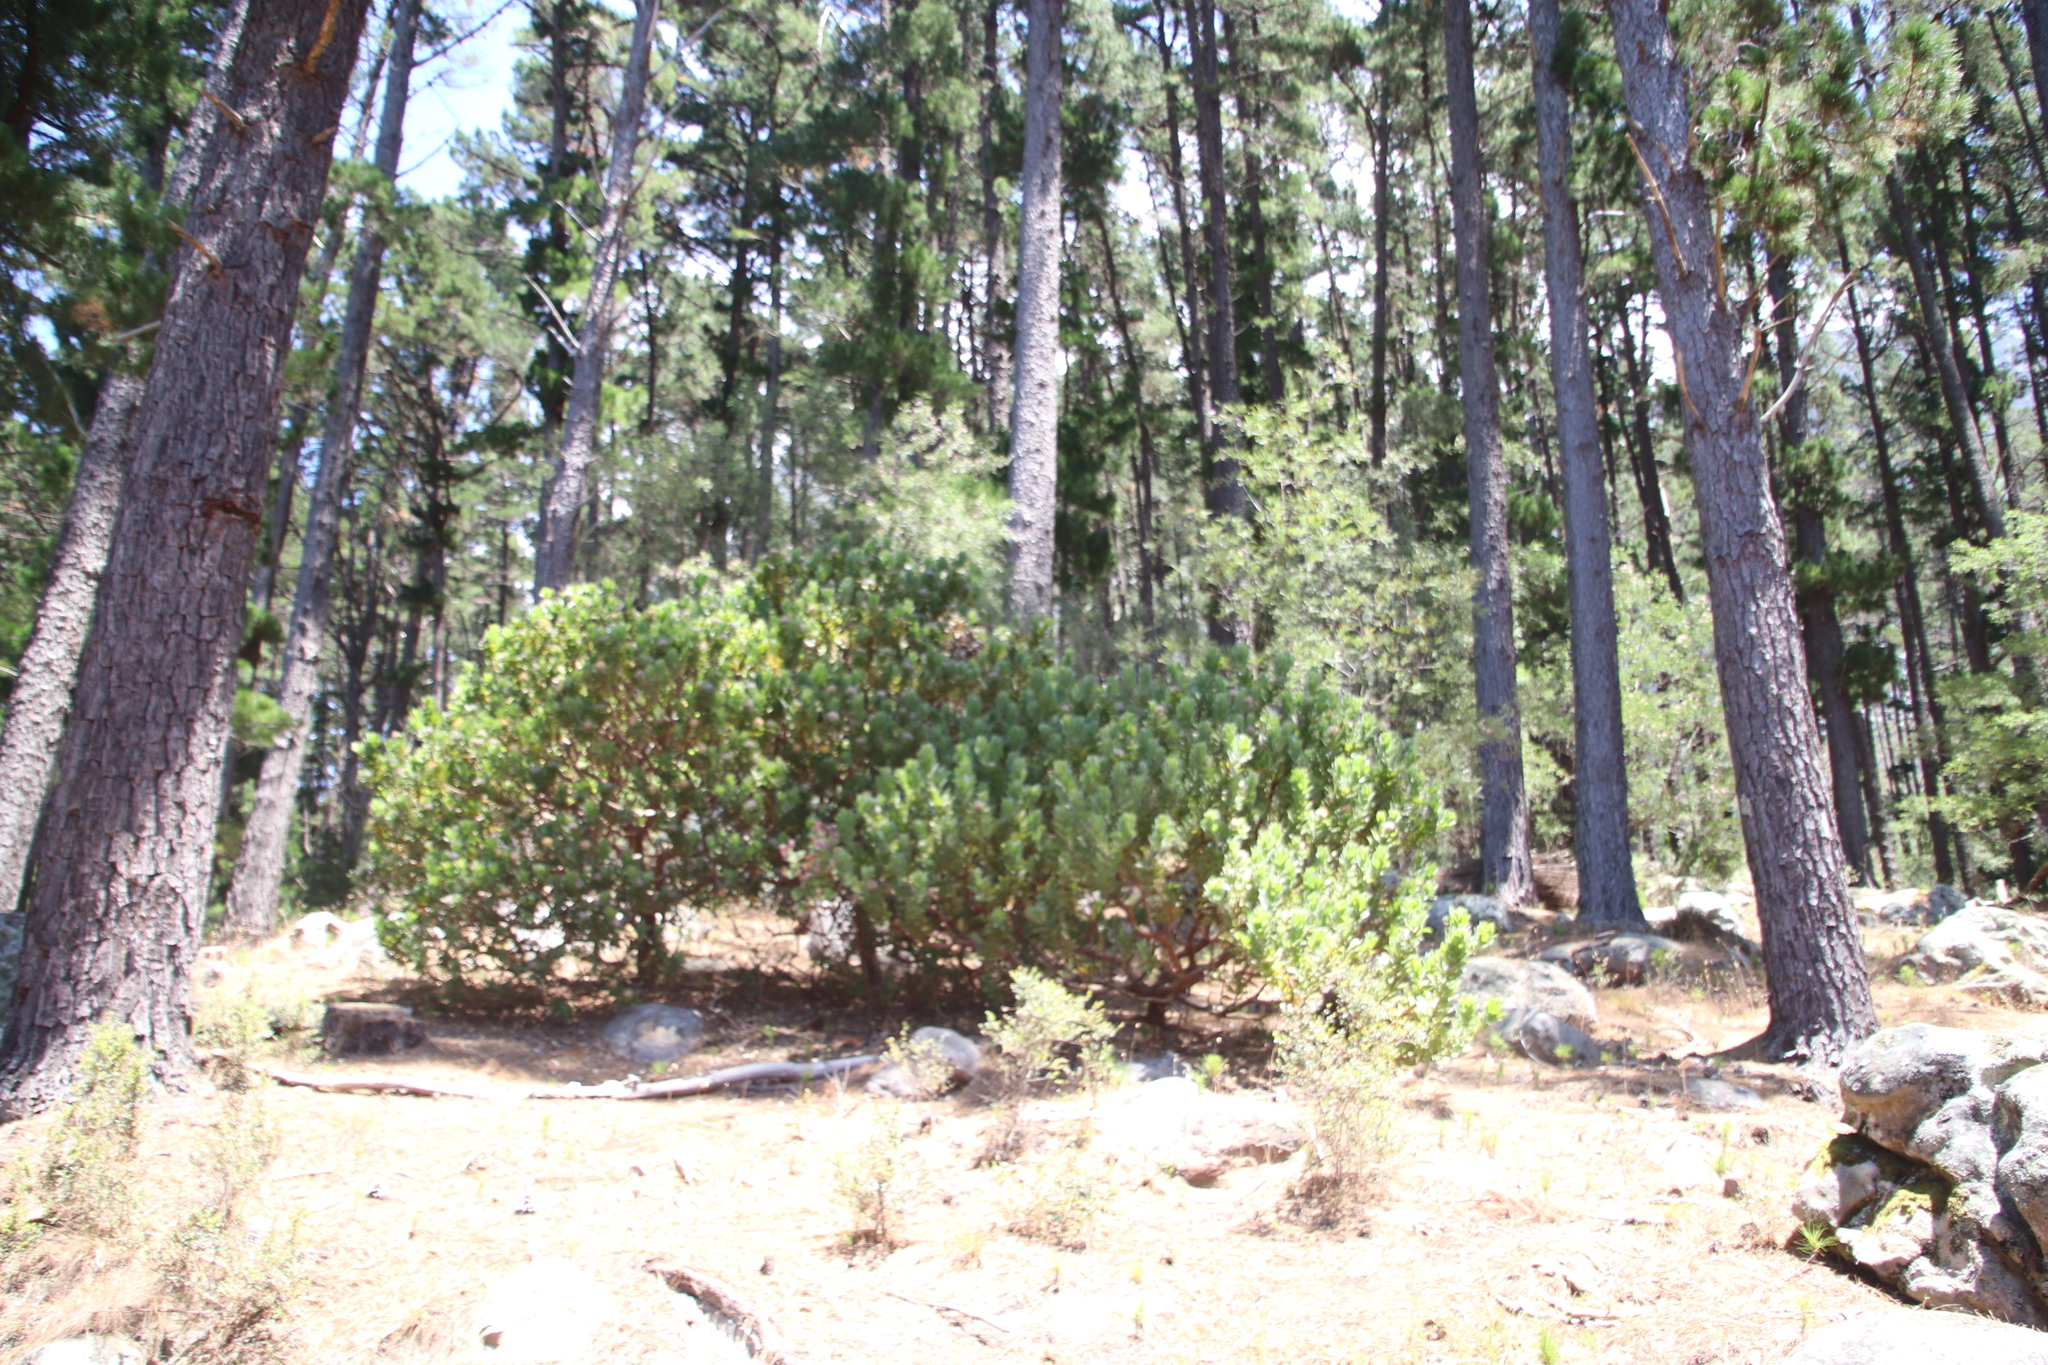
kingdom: Plantae
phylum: Tracheophyta
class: Magnoliopsida
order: Proteales
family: Proteaceae
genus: Leucospermum
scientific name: Leucospermum conocarpodendron
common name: Tree pincushion
